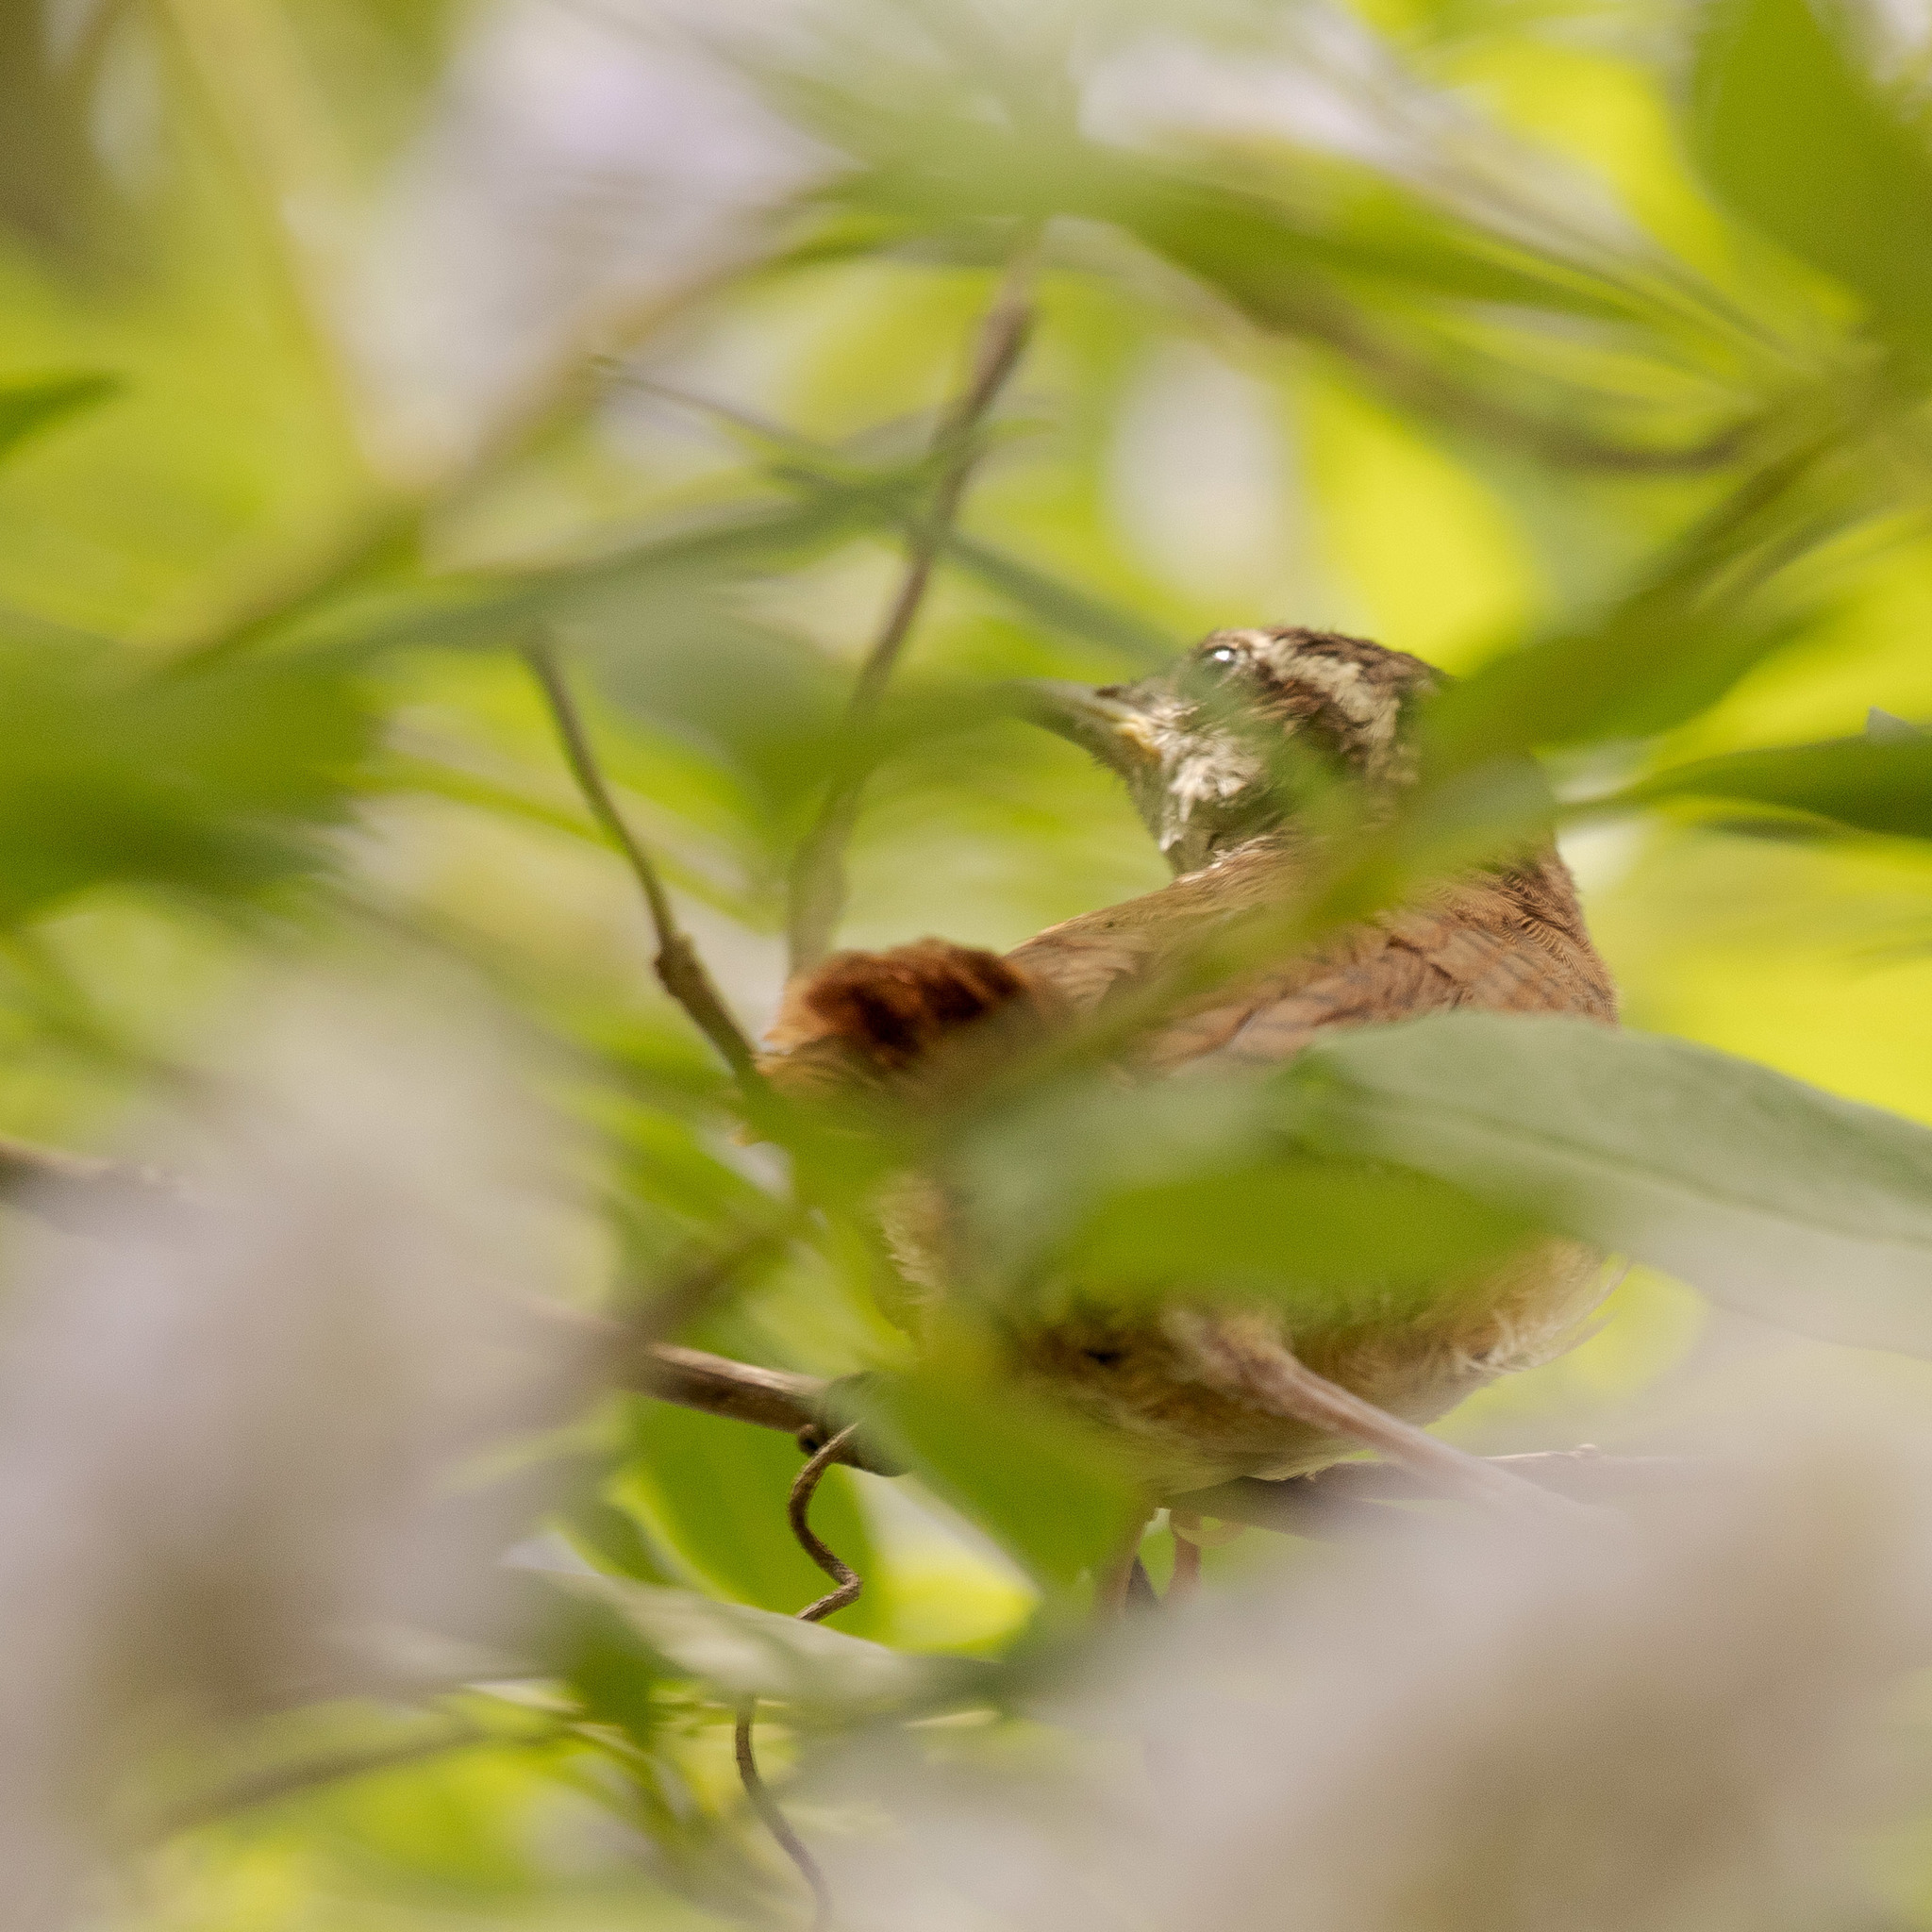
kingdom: Animalia
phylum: Chordata
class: Aves
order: Passeriformes
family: Troglodytidae
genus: Thryothorus
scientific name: Thryothorus ludovicianus
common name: Carolina wren
